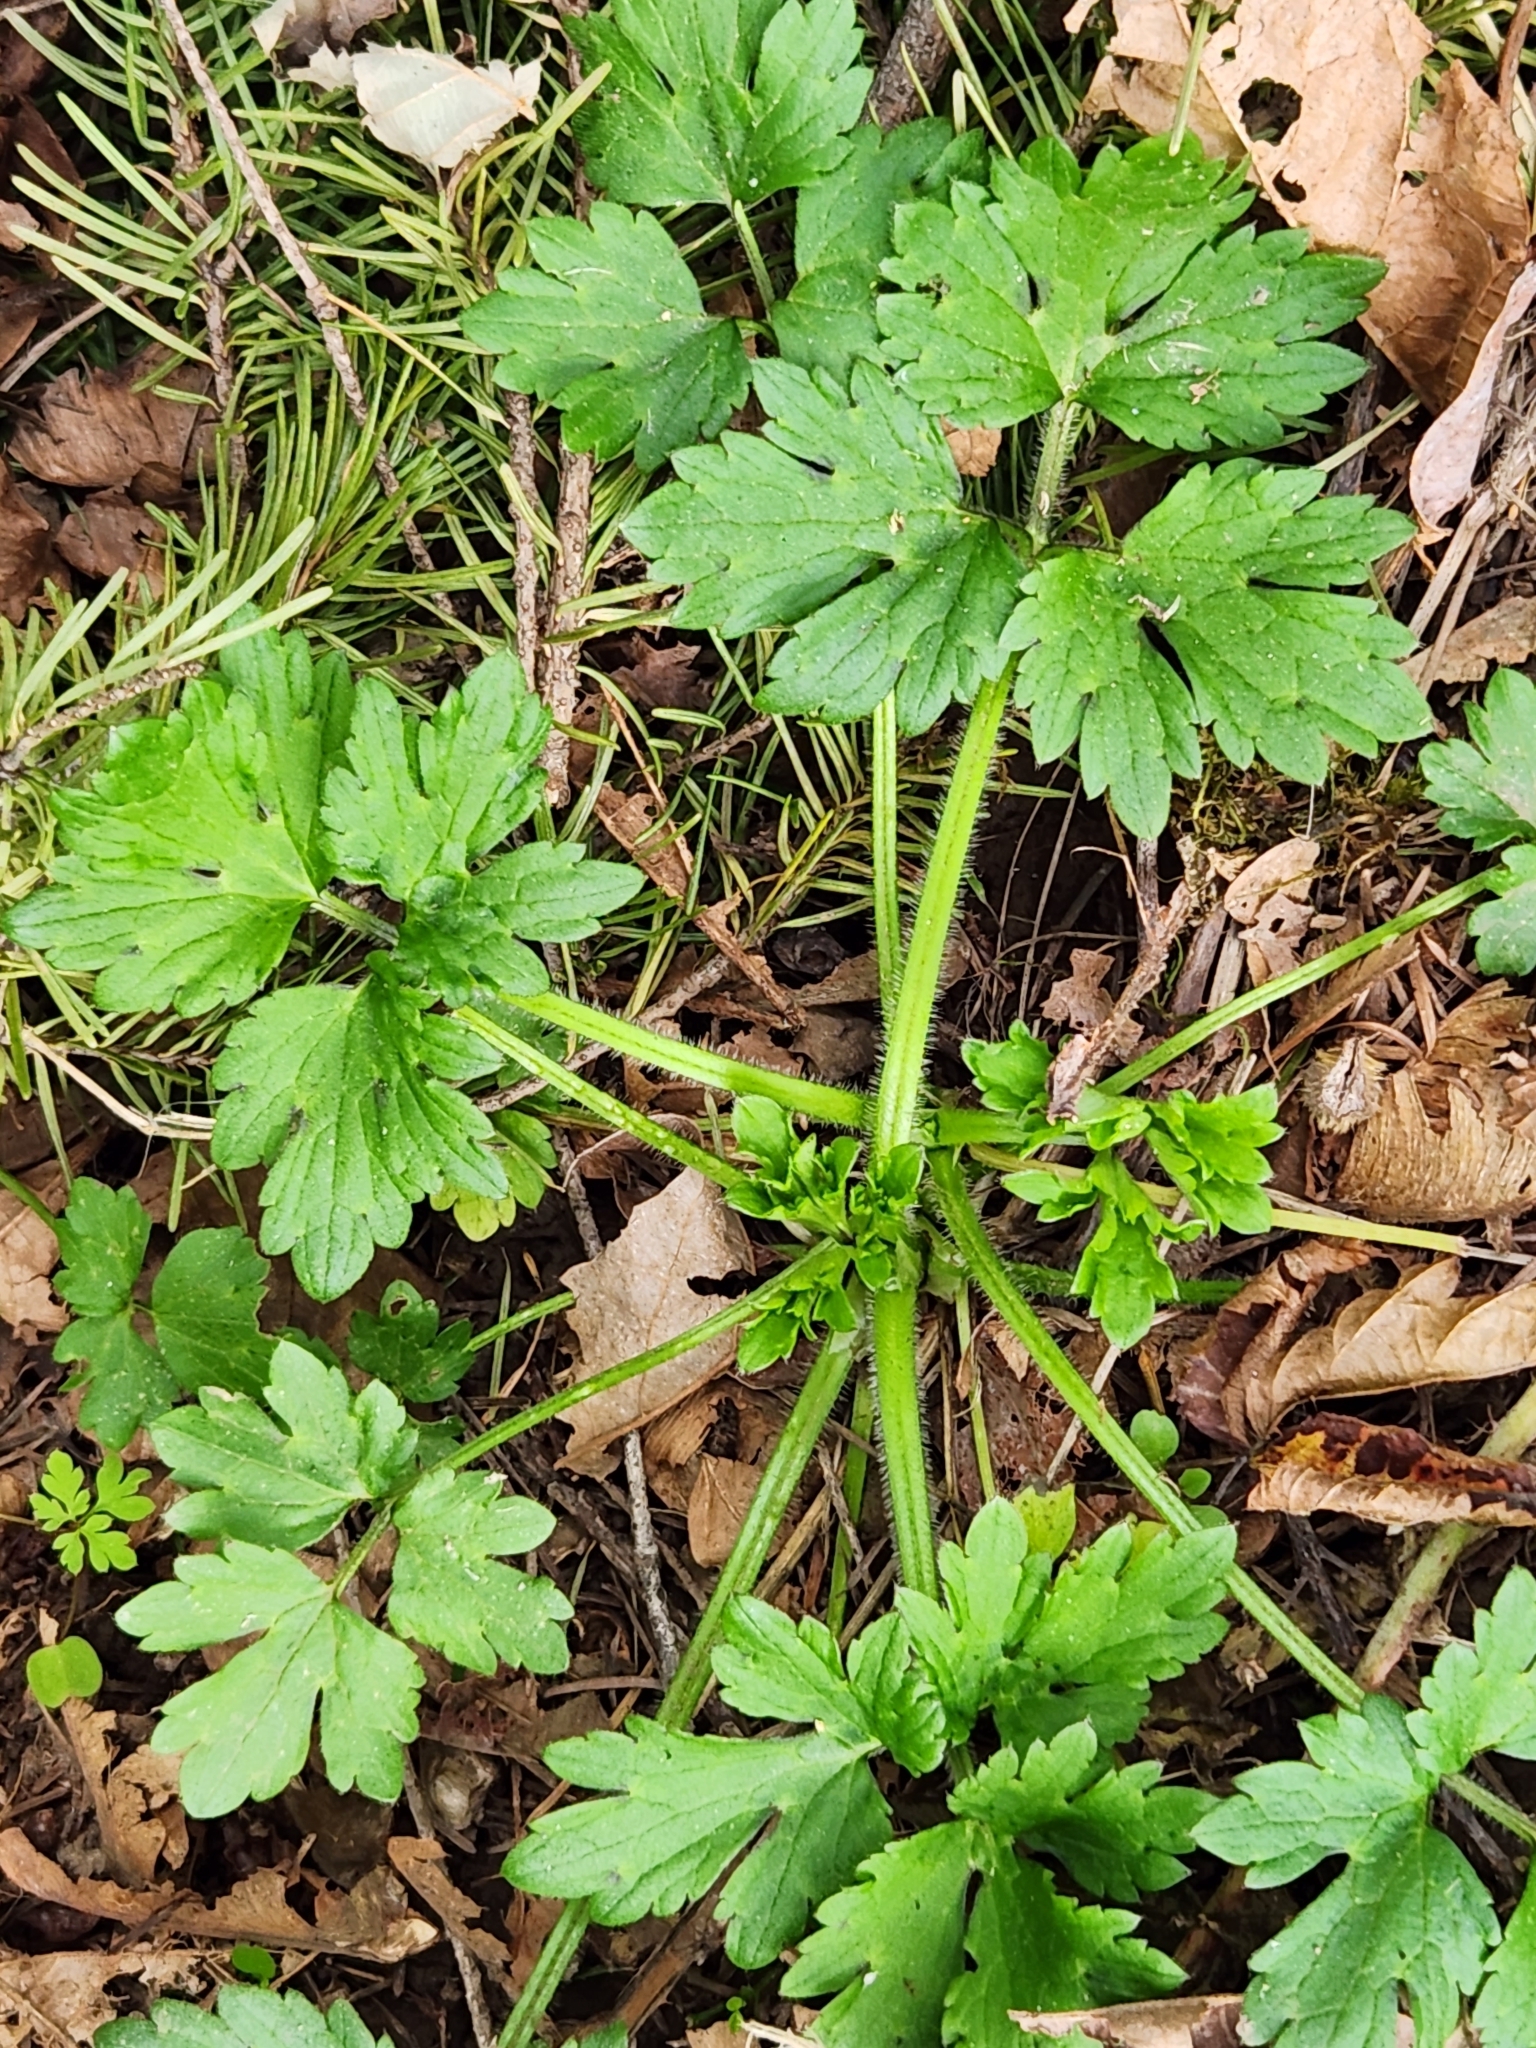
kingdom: Plantae
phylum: Tracheophyta
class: Magnoliopsida
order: Ranunculales
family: Ranunculaceae
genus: Ranunculus
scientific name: Ranunculus repens
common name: Creeping buttercup
